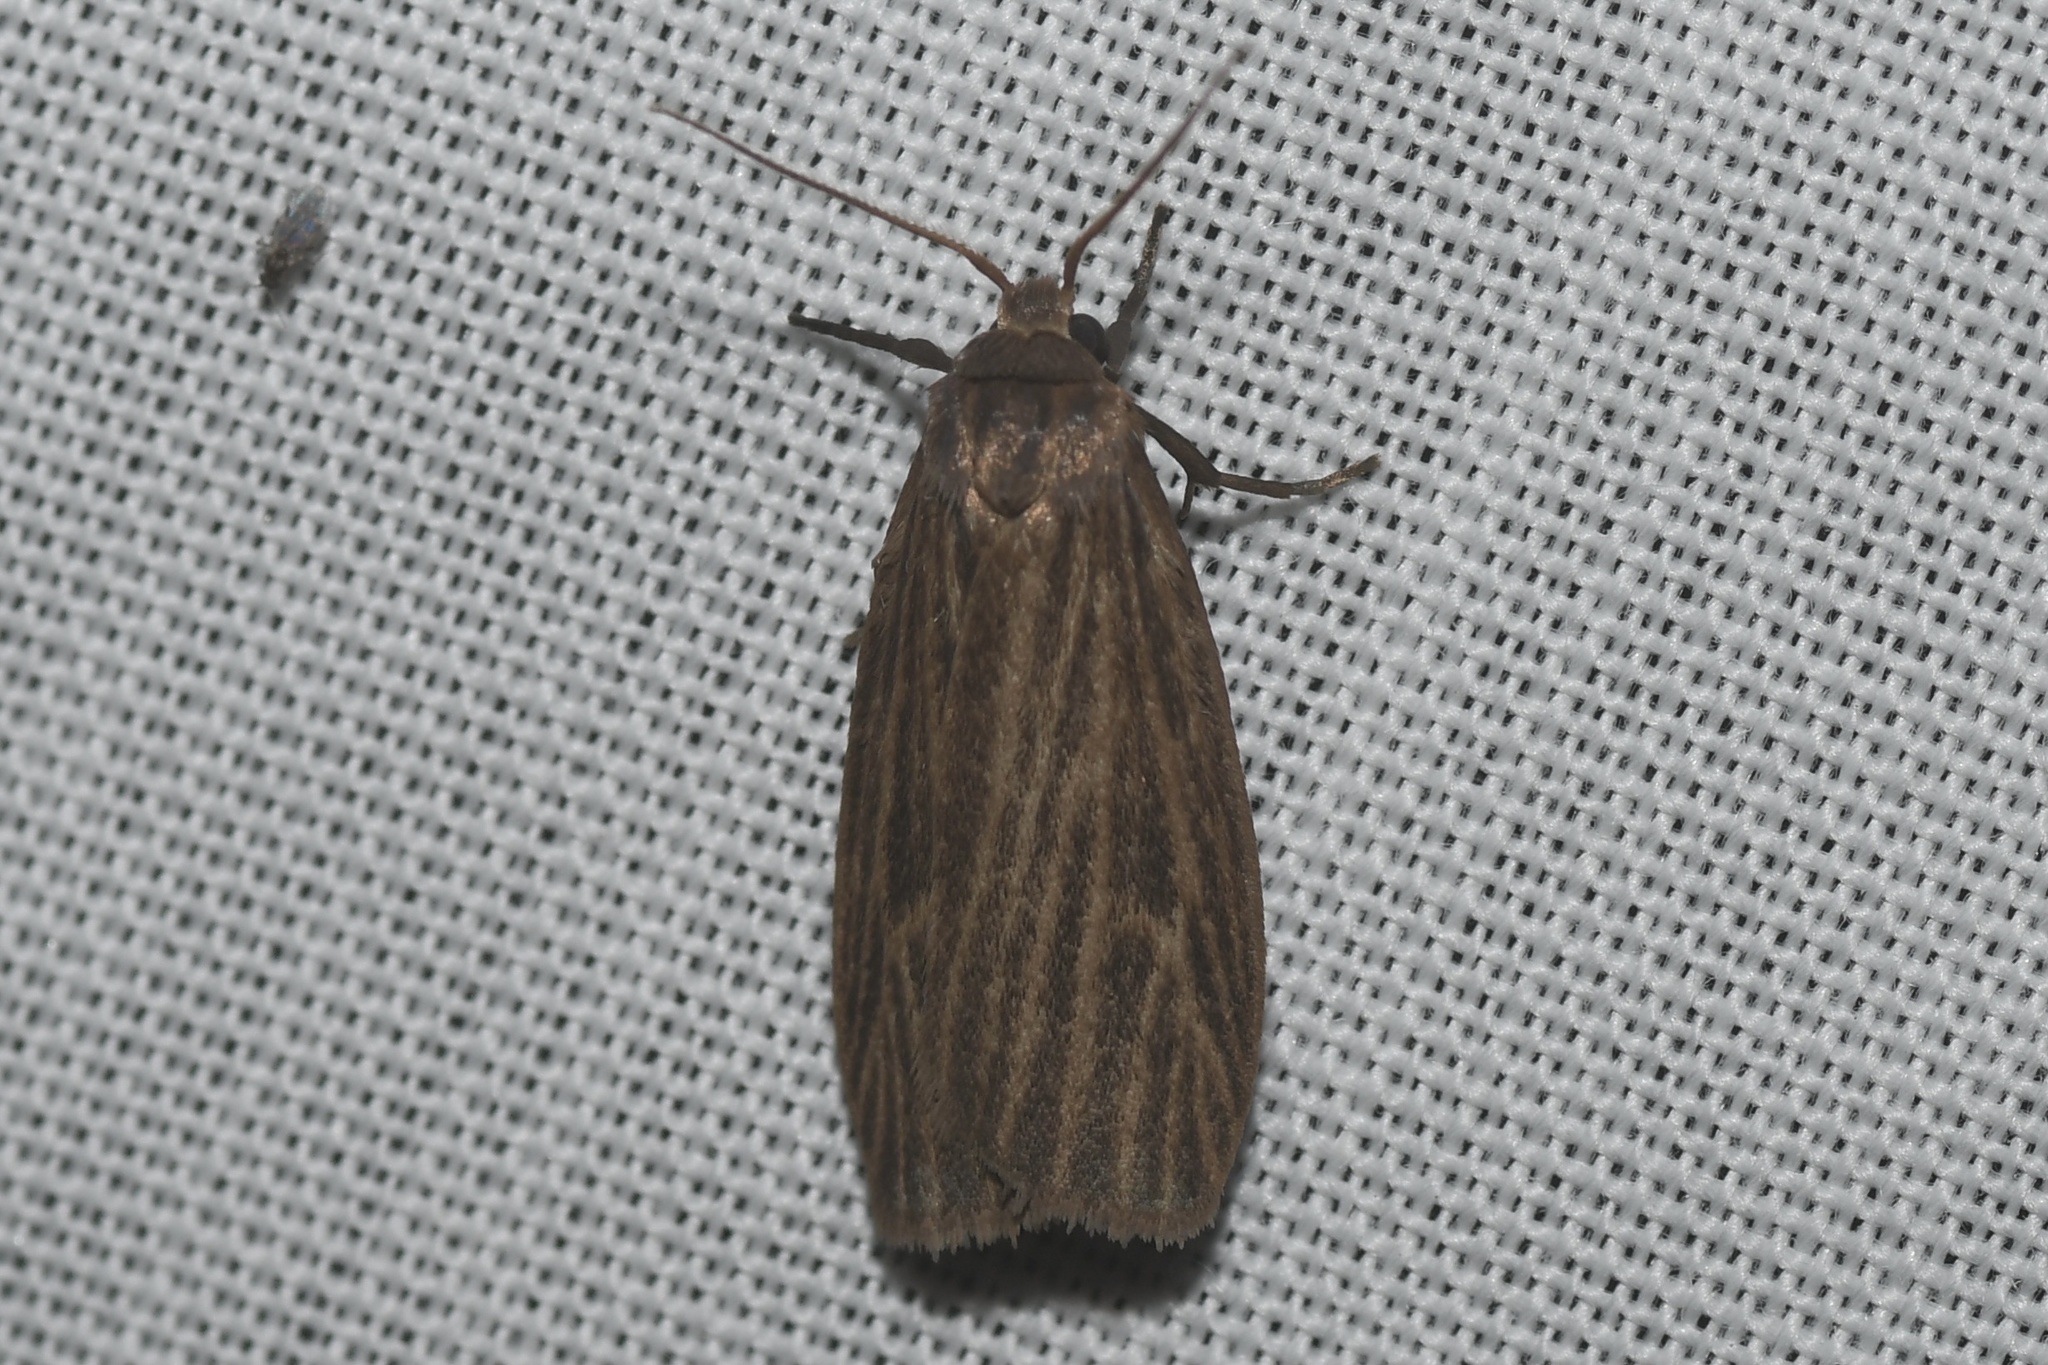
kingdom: Animalia
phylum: Arthropoda
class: Insecta
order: Lepidoptera
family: Erebidae
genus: Crambidia
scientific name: Crambidia pallida
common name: Pale lichen moth
